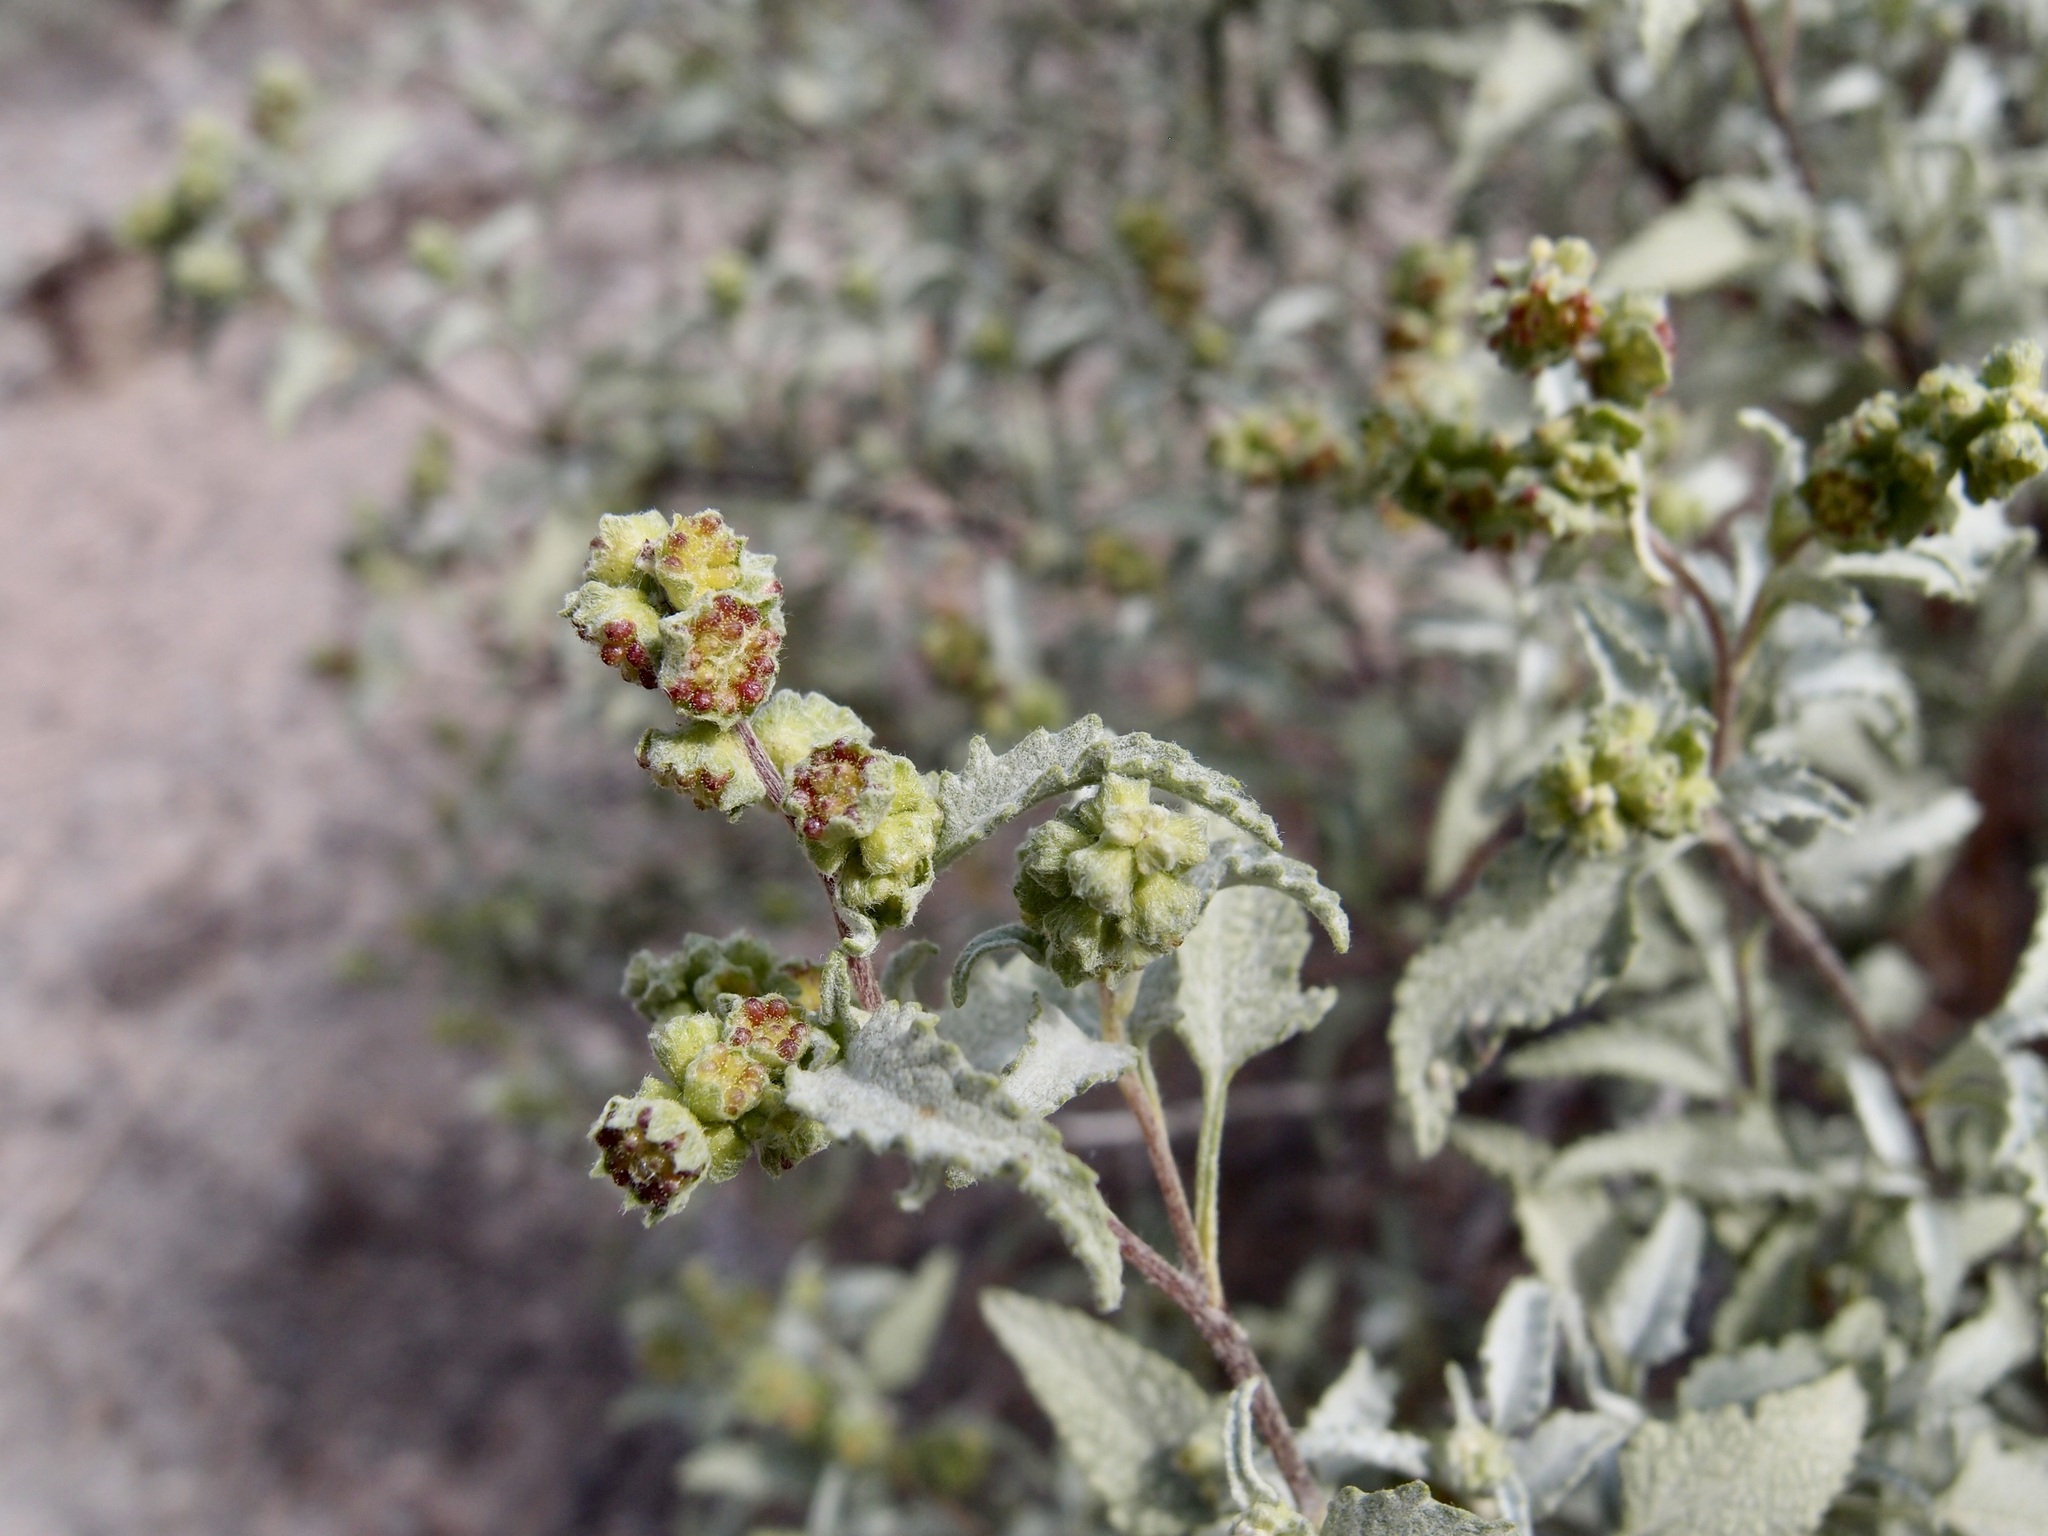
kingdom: Plantae
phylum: Tracheophyta
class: Magnoliopsida
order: Asterales
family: Asteraceae
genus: Ambrosia
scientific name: Ambrosia deltoidea
